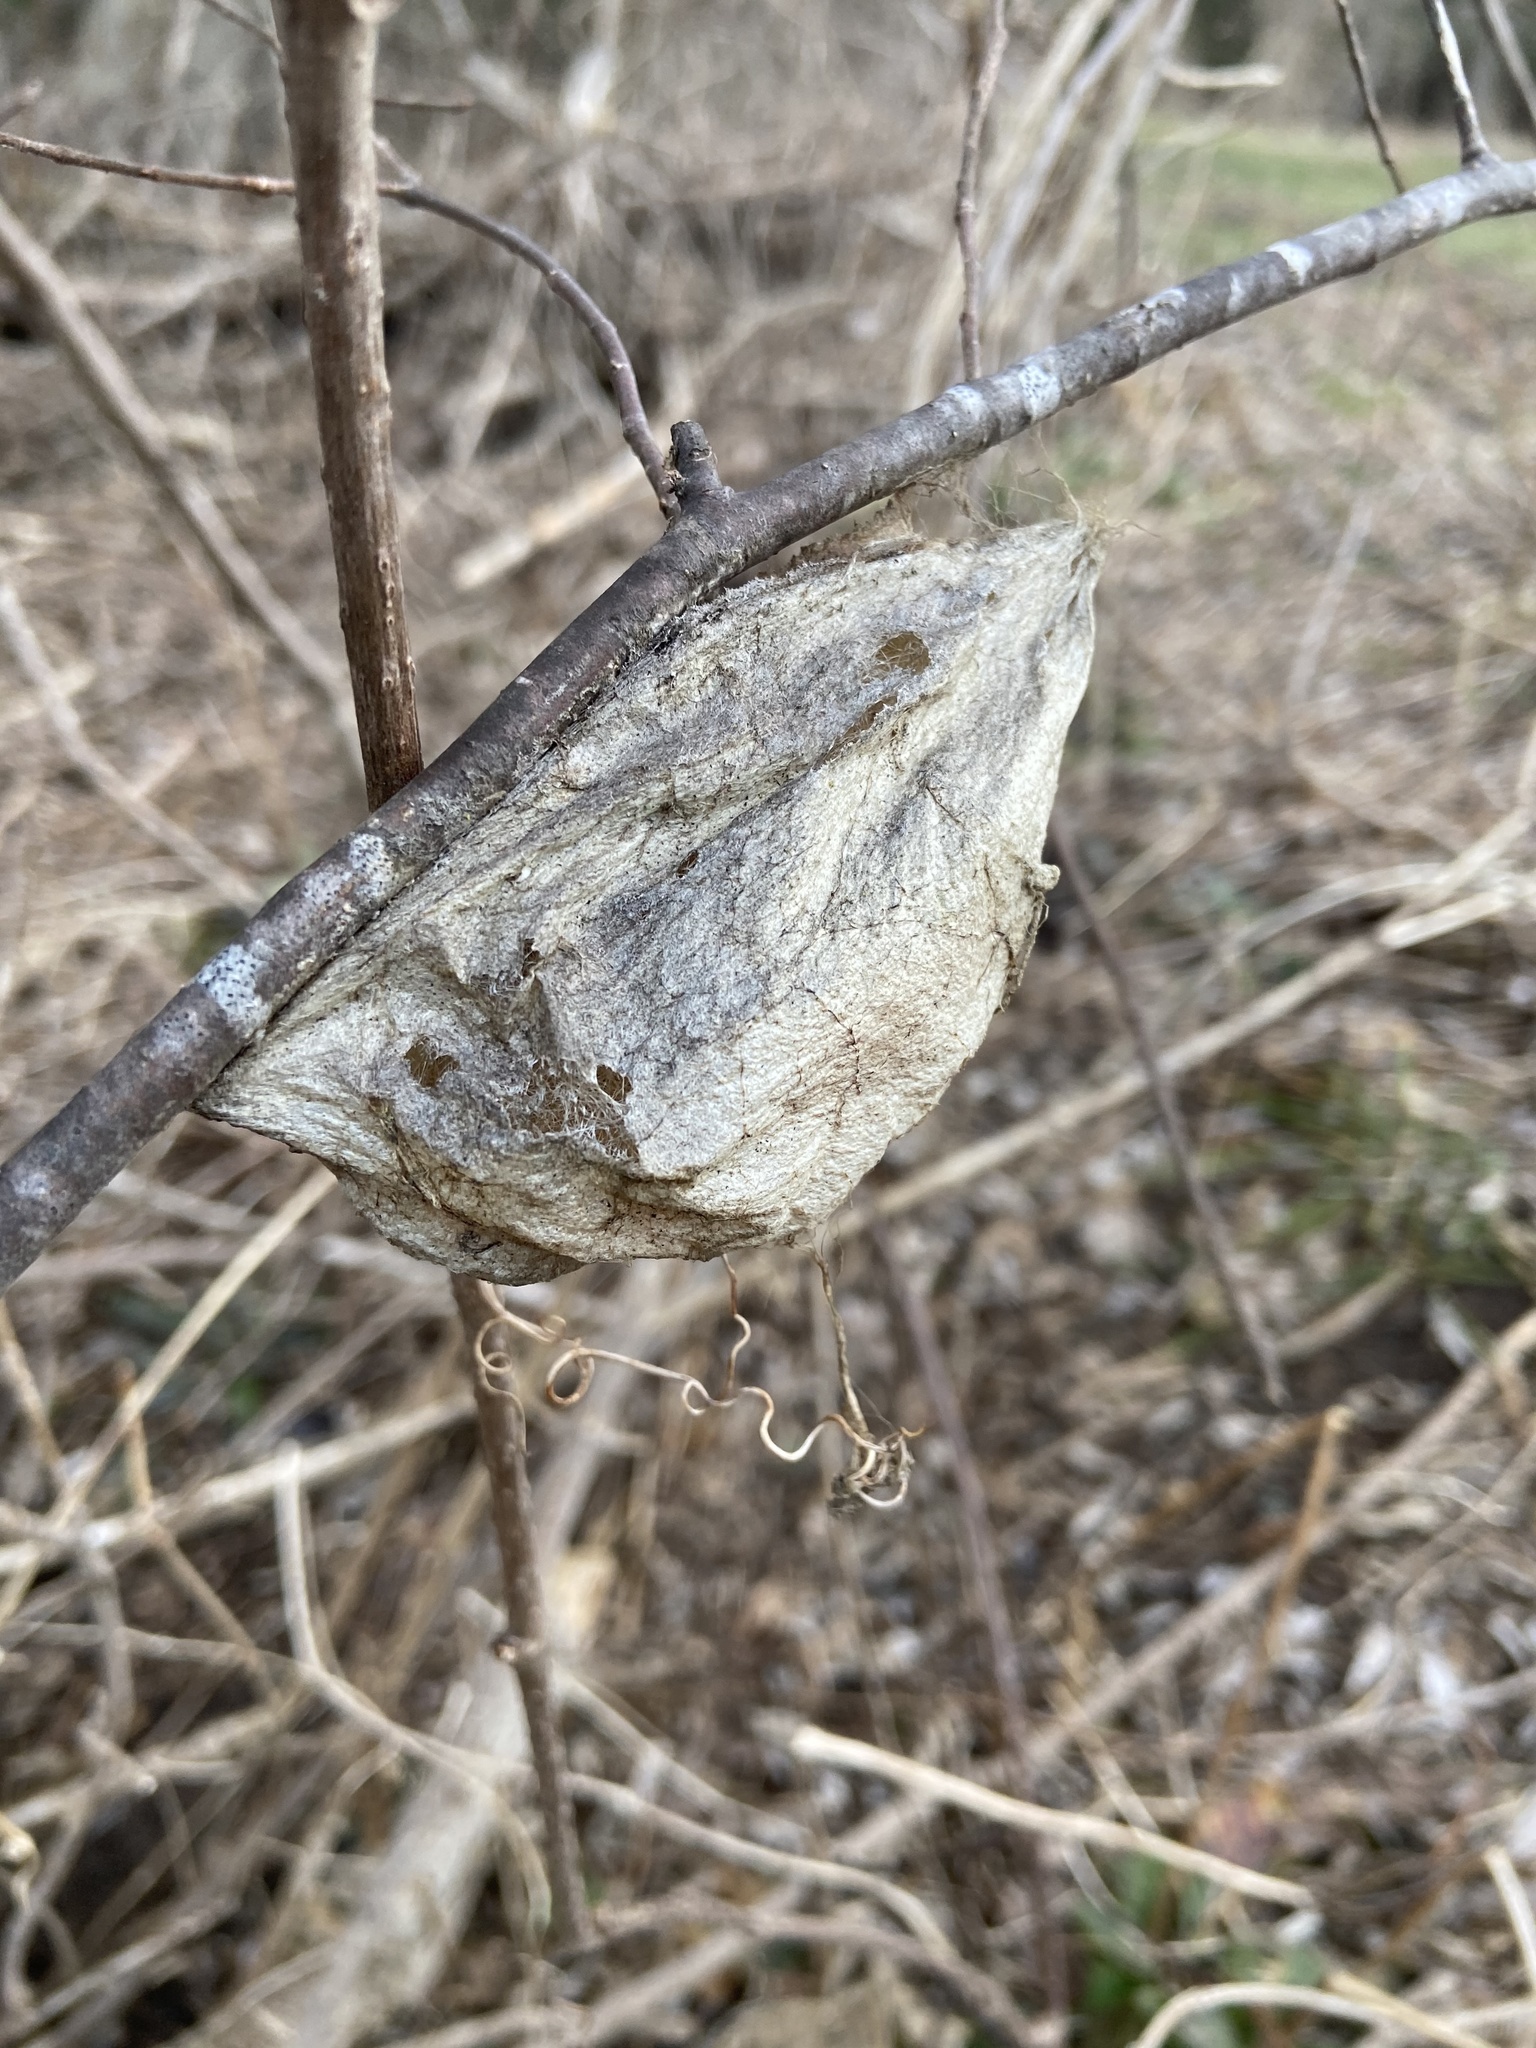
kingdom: Animalia
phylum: Arthropoda
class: Insecta
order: Lepidoptera
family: Saturniidae
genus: Hyalophora
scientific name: Hyalophora cecropia
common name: Cecropia silkmoth
